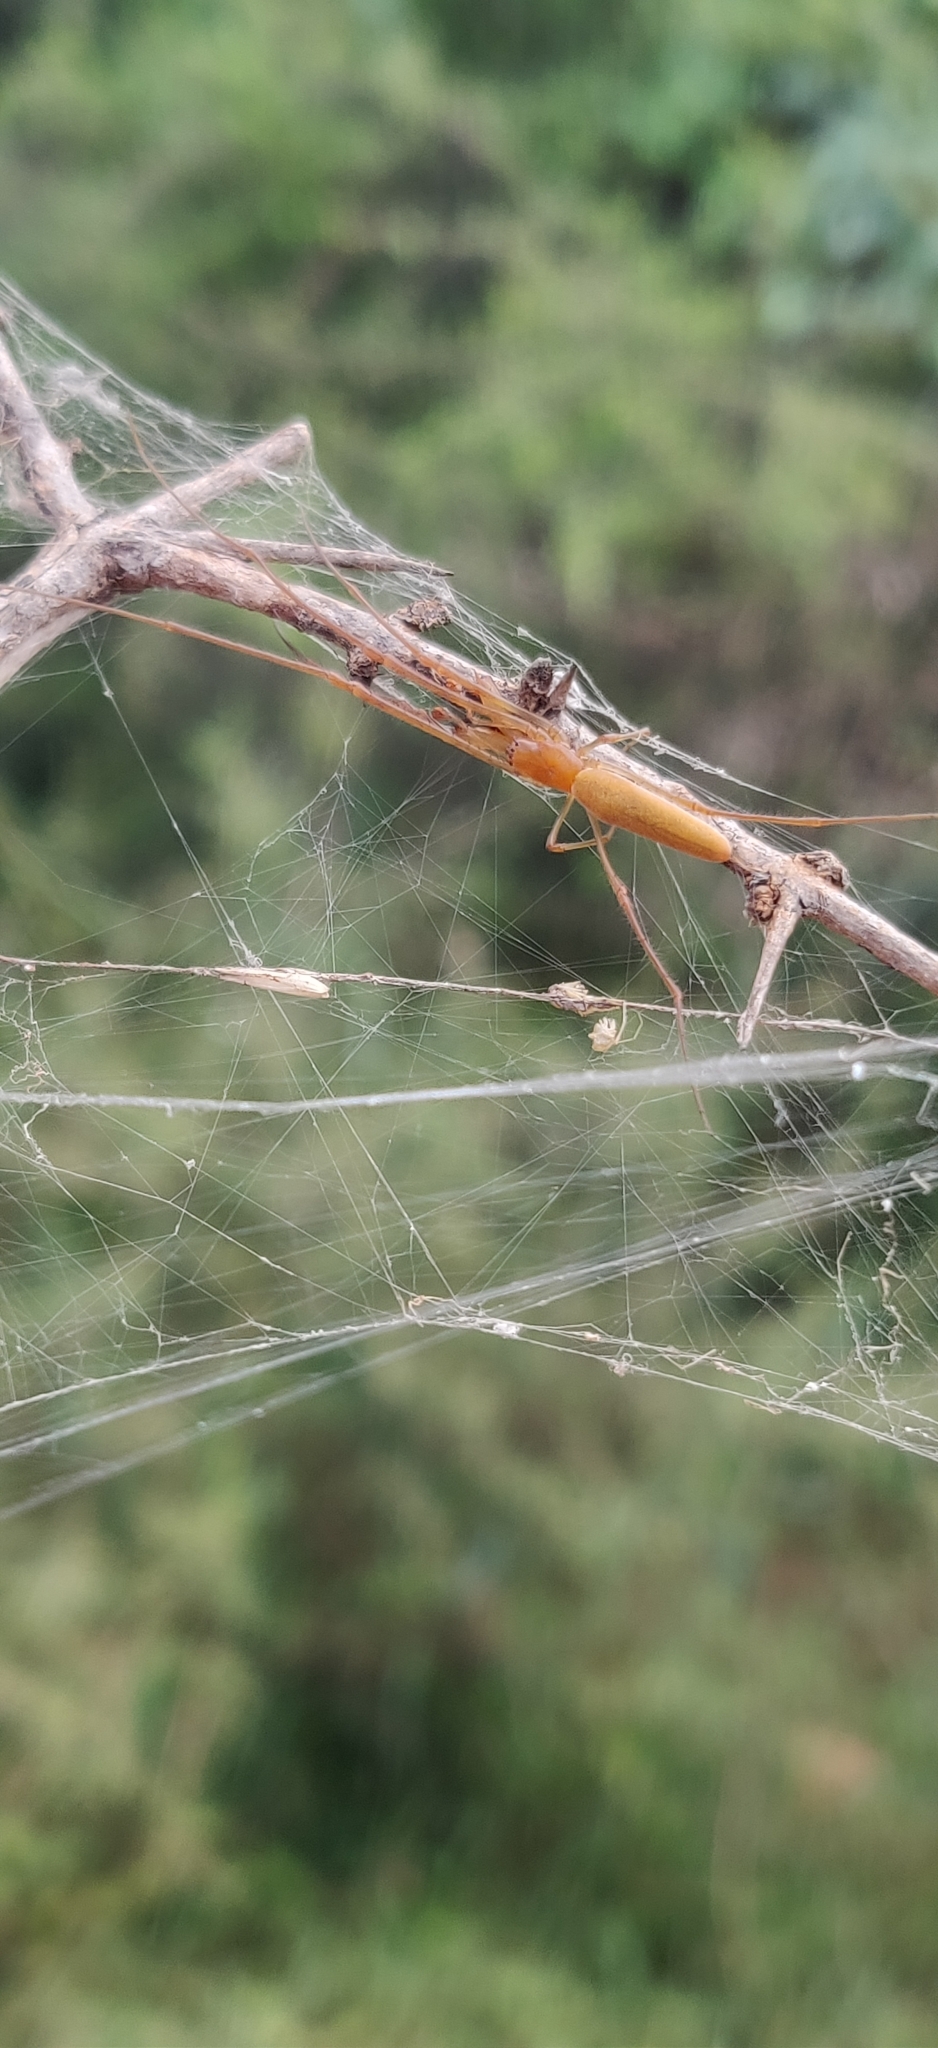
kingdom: Plantae
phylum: Tracheophyta
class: Magnoliopsida
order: Lamiales
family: Pedaliaceae
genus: Pedalium
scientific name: Pedalium murex
